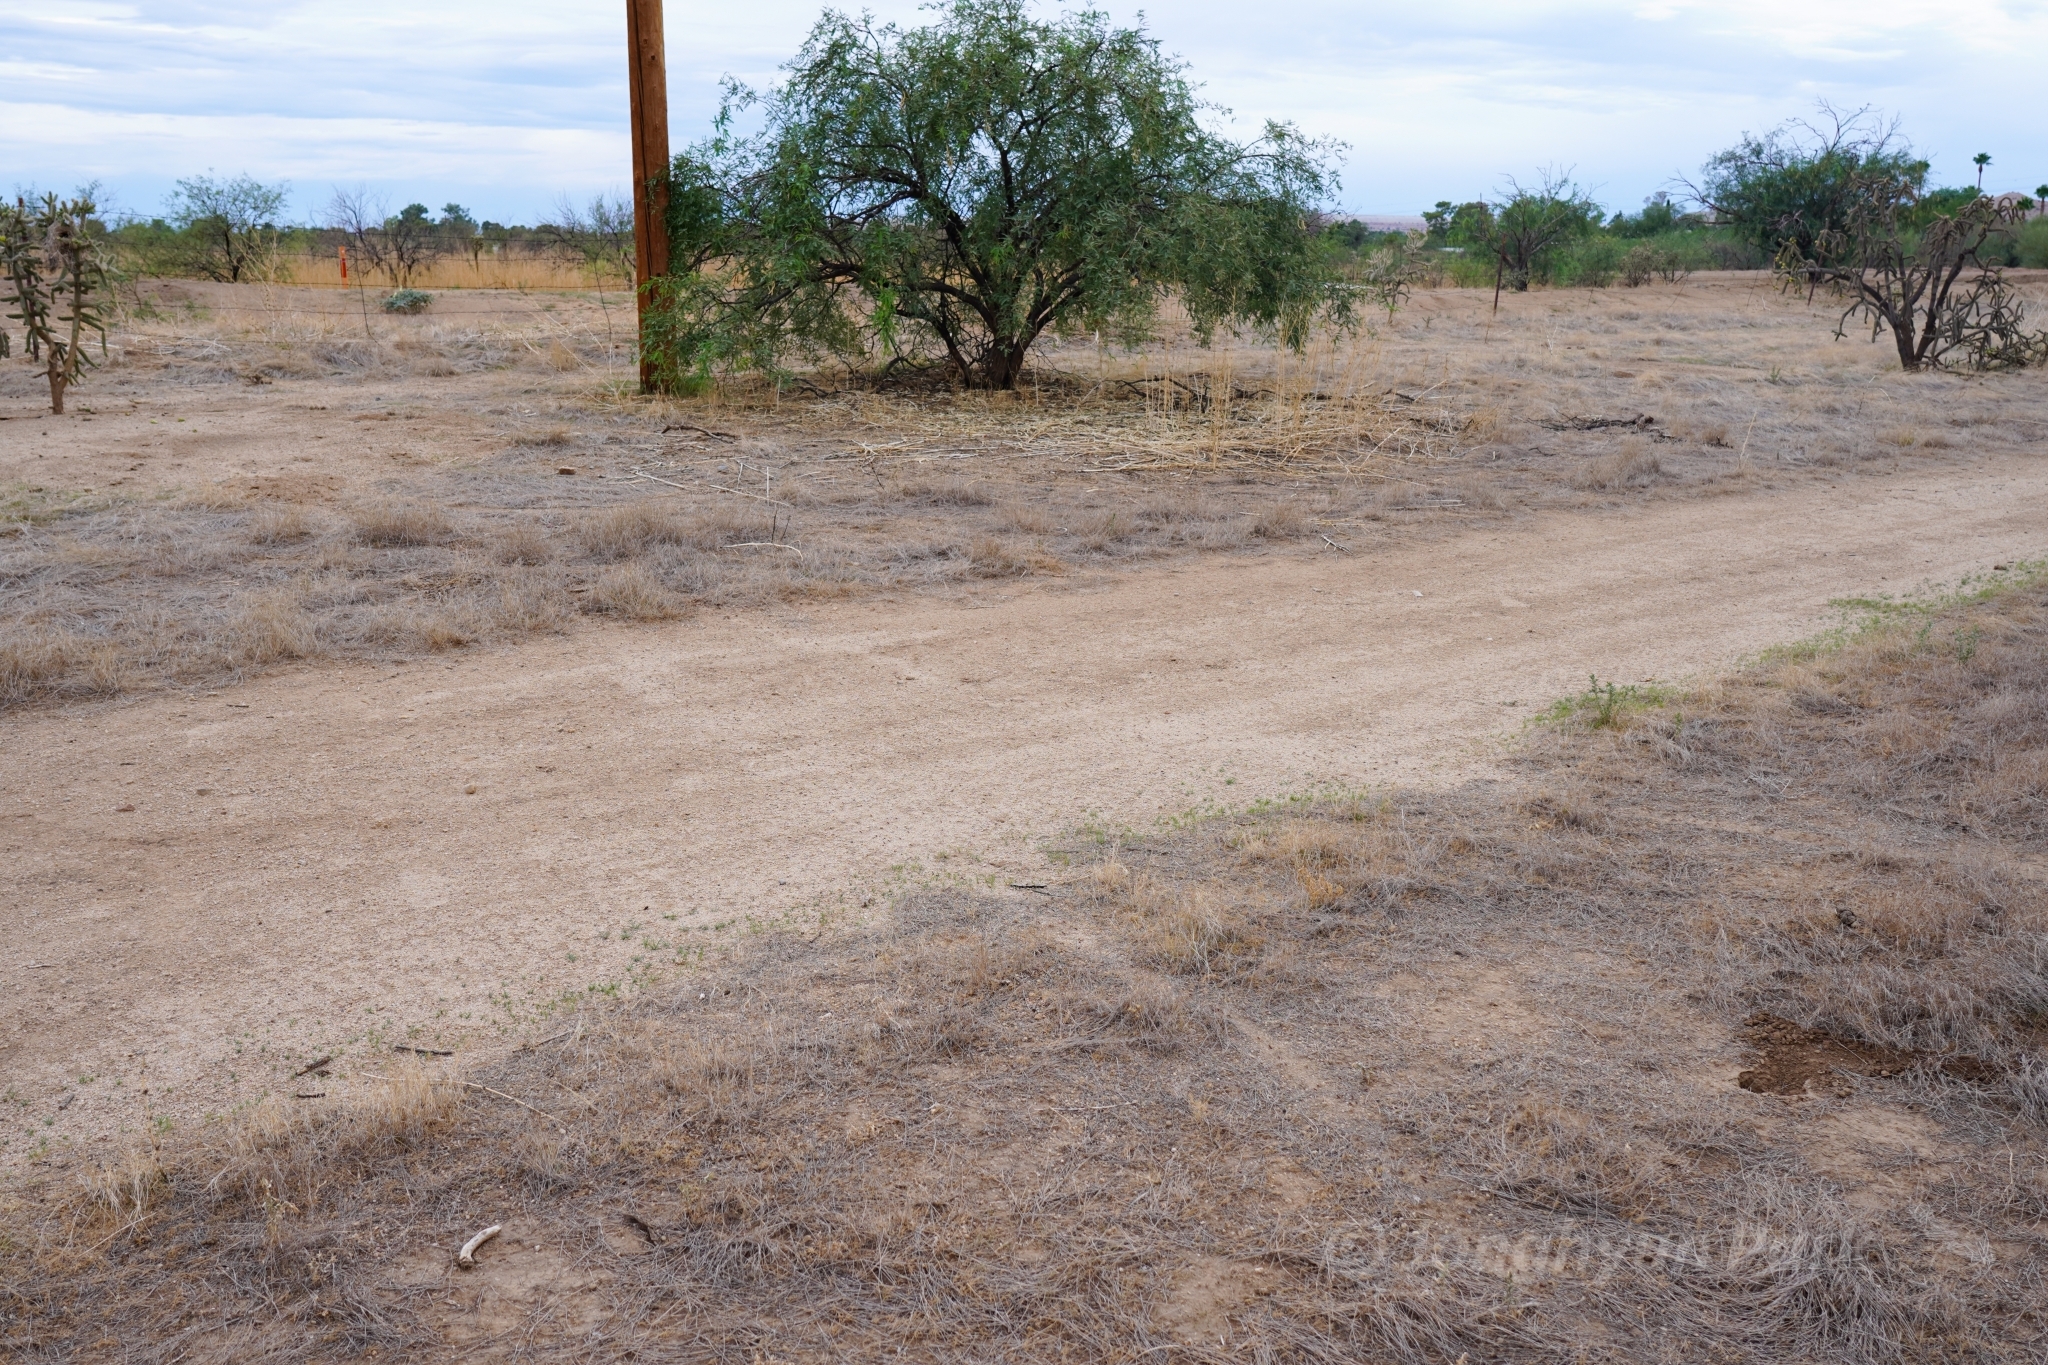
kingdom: Animalia
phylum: Arthropoda
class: Insecta
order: Hymenoptera
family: Formicidae
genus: Pogonomyrmex
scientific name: Pogonomyrmex barbatus
